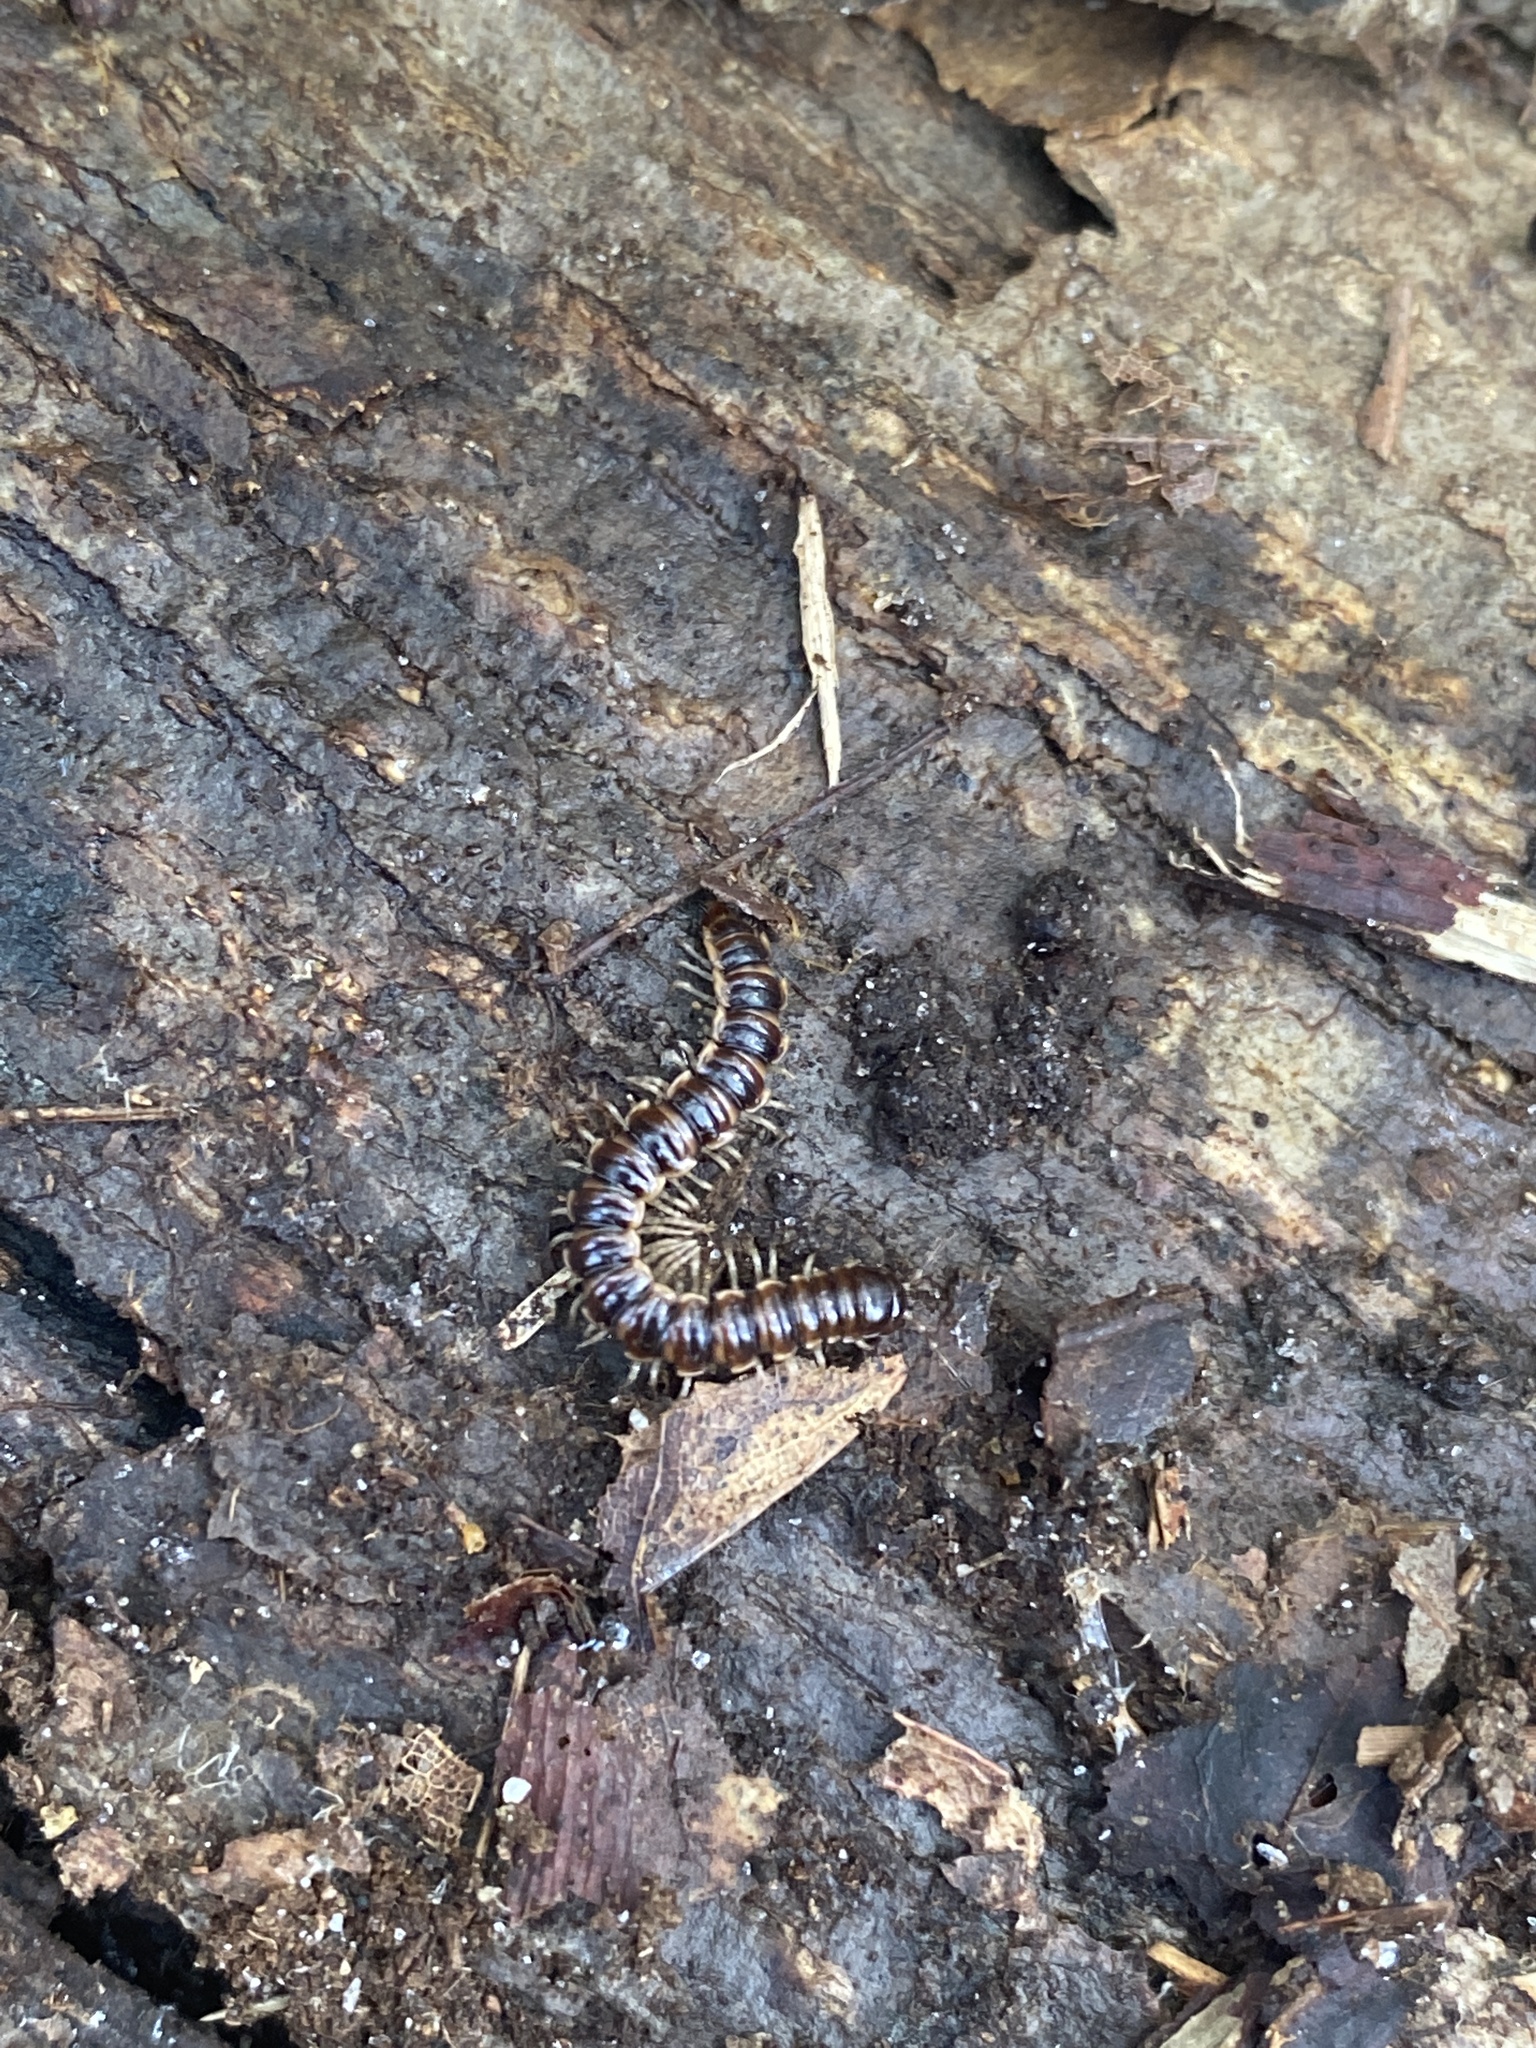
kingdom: Animalia
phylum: Arthropoda
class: Diplopoda
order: Polydesmida
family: Paradoxosomatidae
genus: Oxidus
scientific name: Oxidus gracilis
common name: Greenhouse millipede
